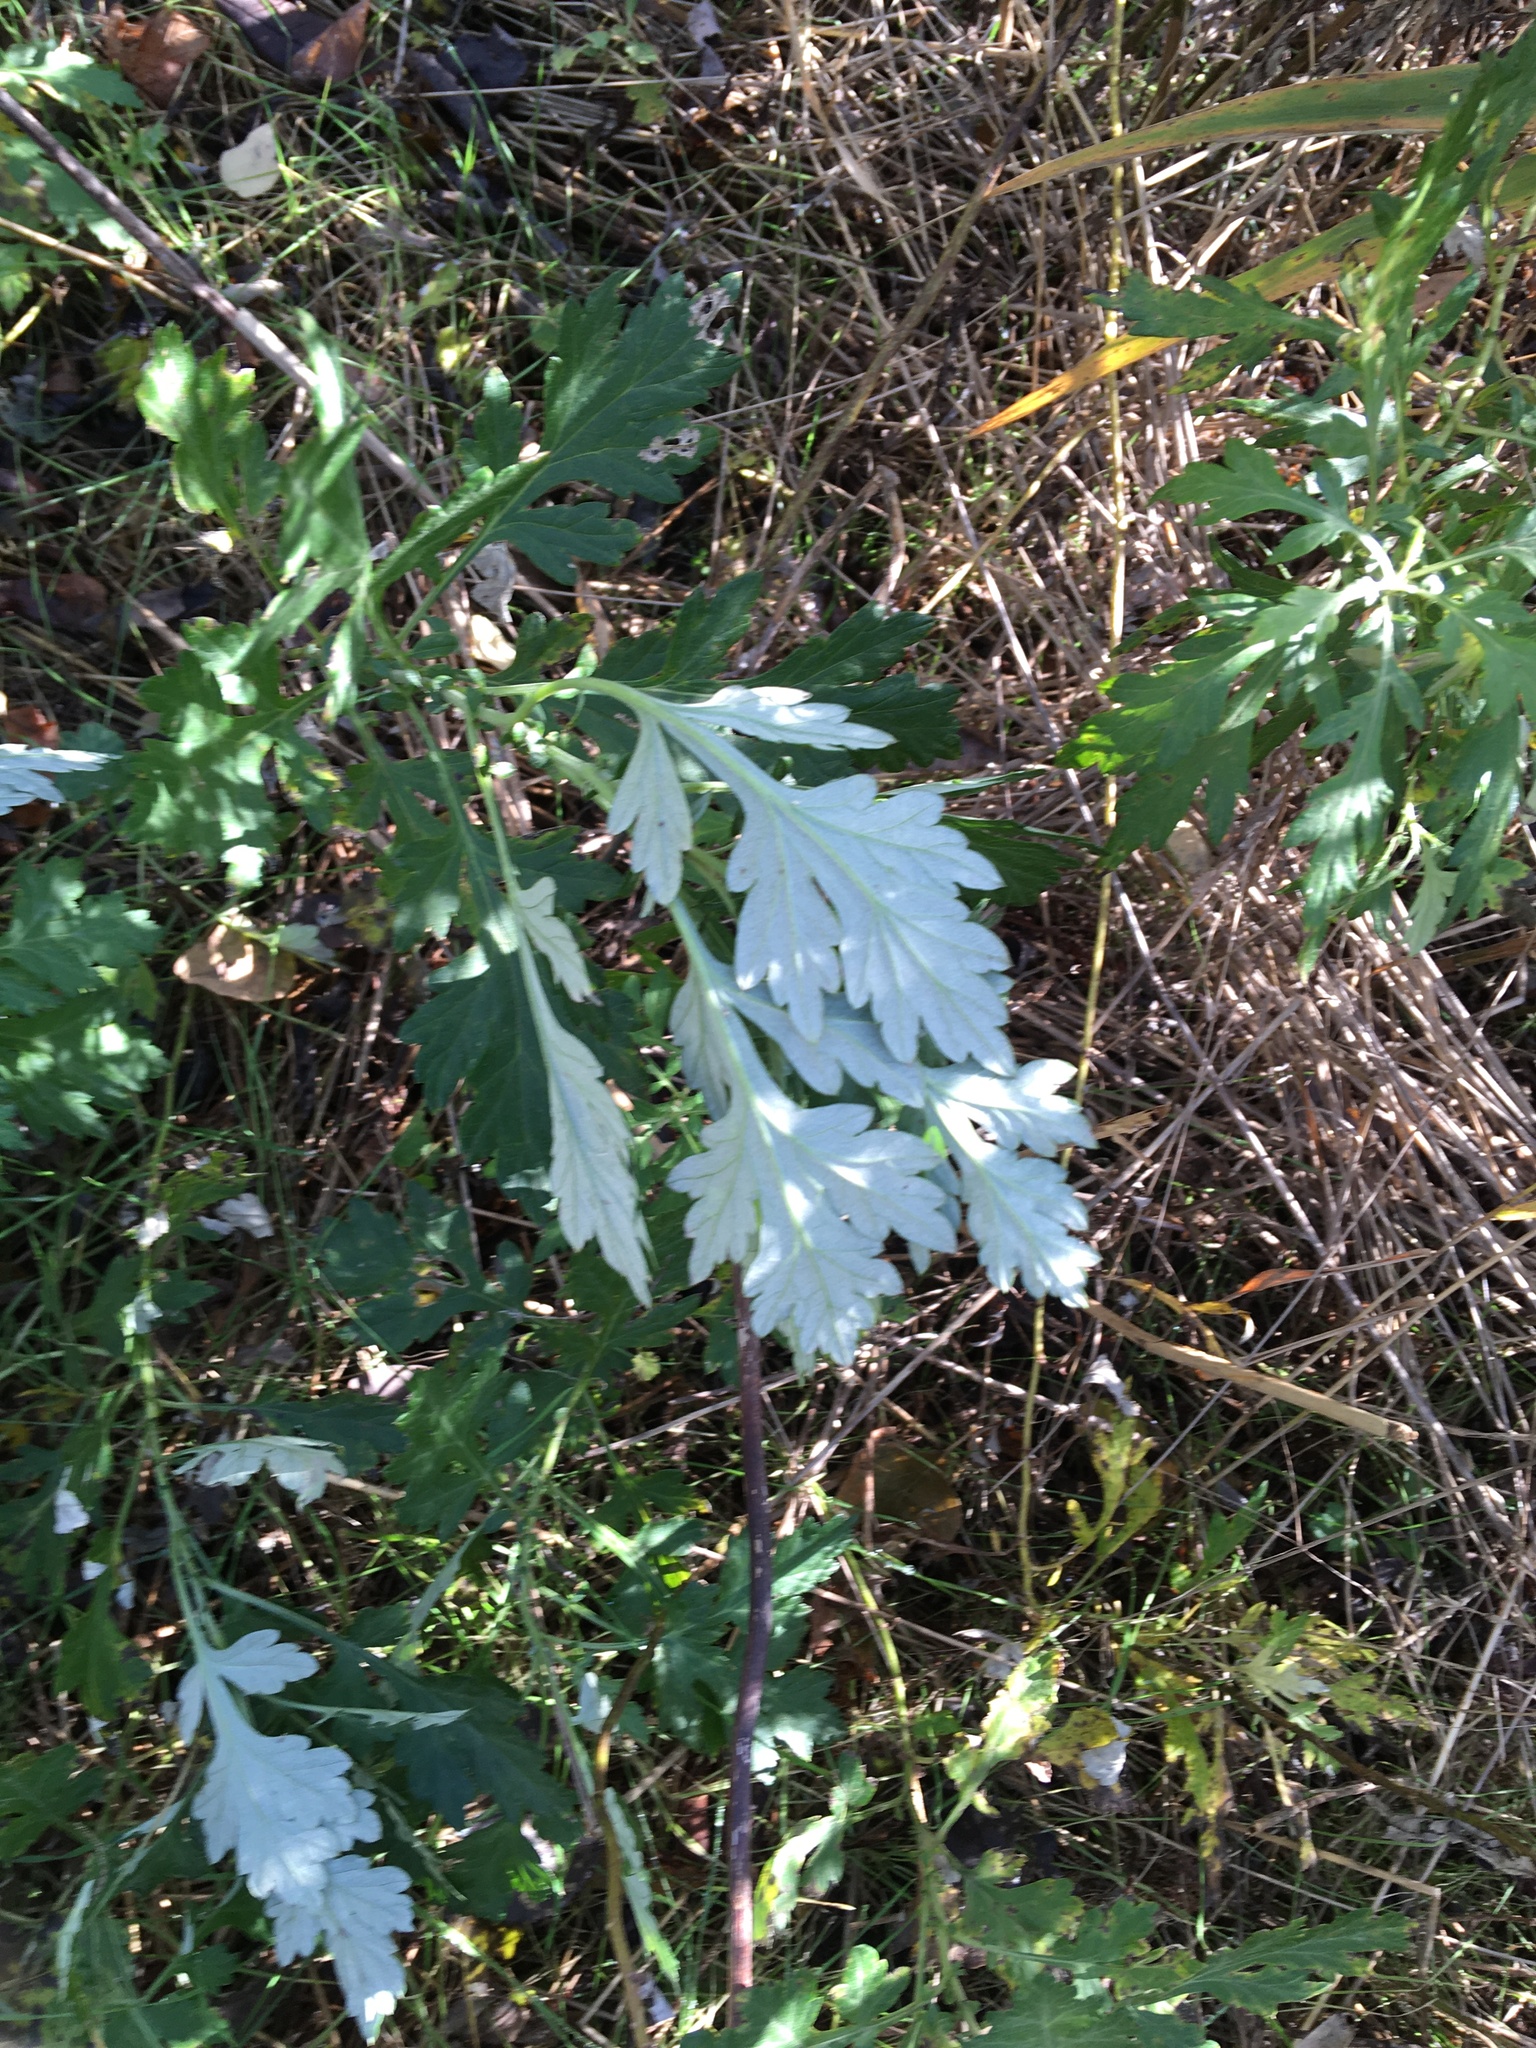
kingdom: Plantae
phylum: Tracheophyta
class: Magnoliopsida
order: Asterales
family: Asteraceae
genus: Artemisia
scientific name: Artemisia vulgaris
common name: Mugwort
